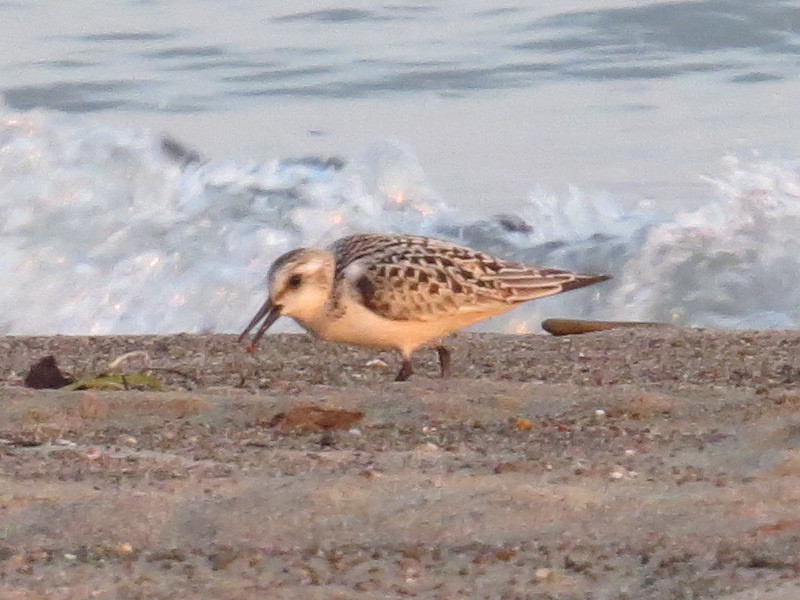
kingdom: Animalia
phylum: Chordata
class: Aves
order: Charadriiformes
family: Scolopacidae
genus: Calidris
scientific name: Calidris alba
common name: Sanderling
